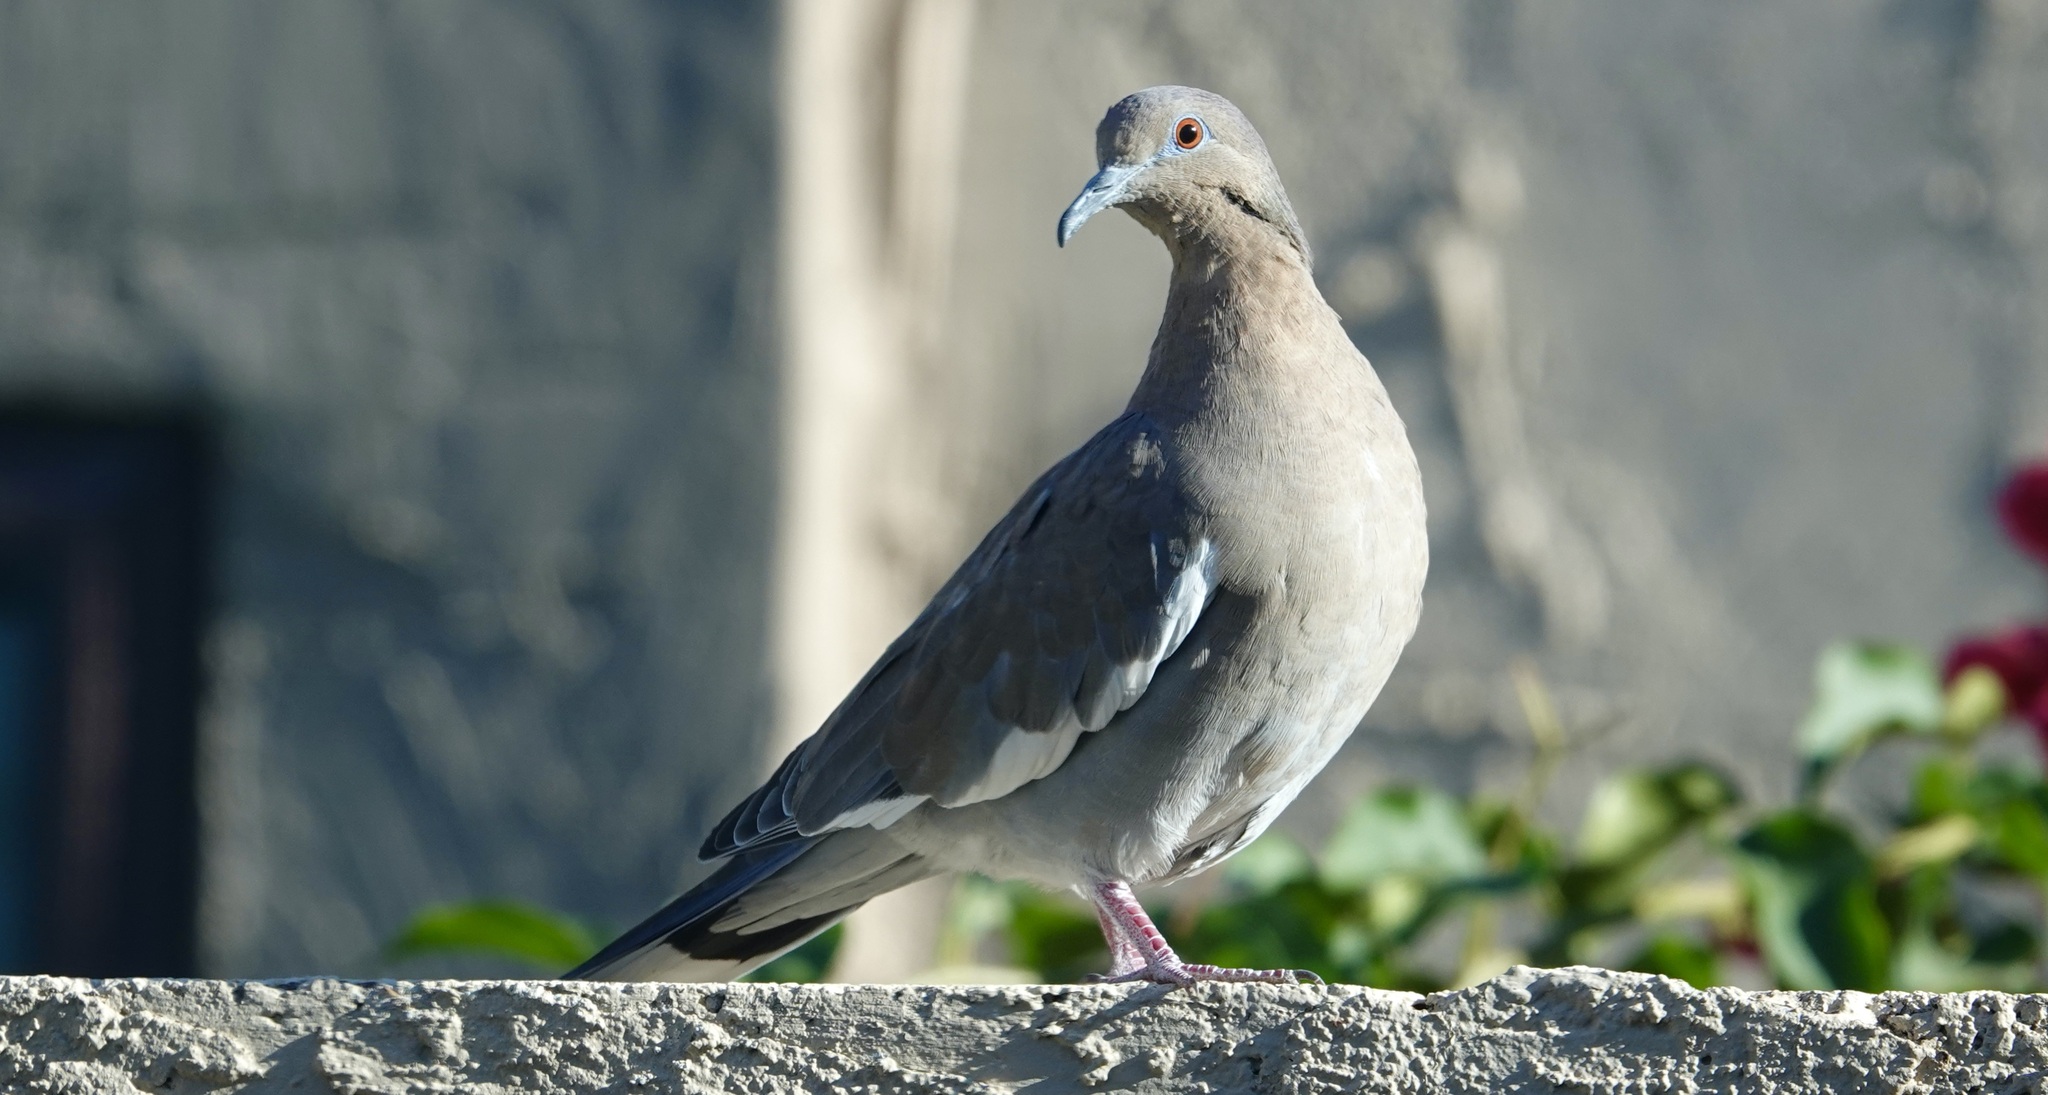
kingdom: Animalia
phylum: Chordata
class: Aves
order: Columbiformes
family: Columbidae
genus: Zenaida
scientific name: Zenaida asiatica
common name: White-winged dove
